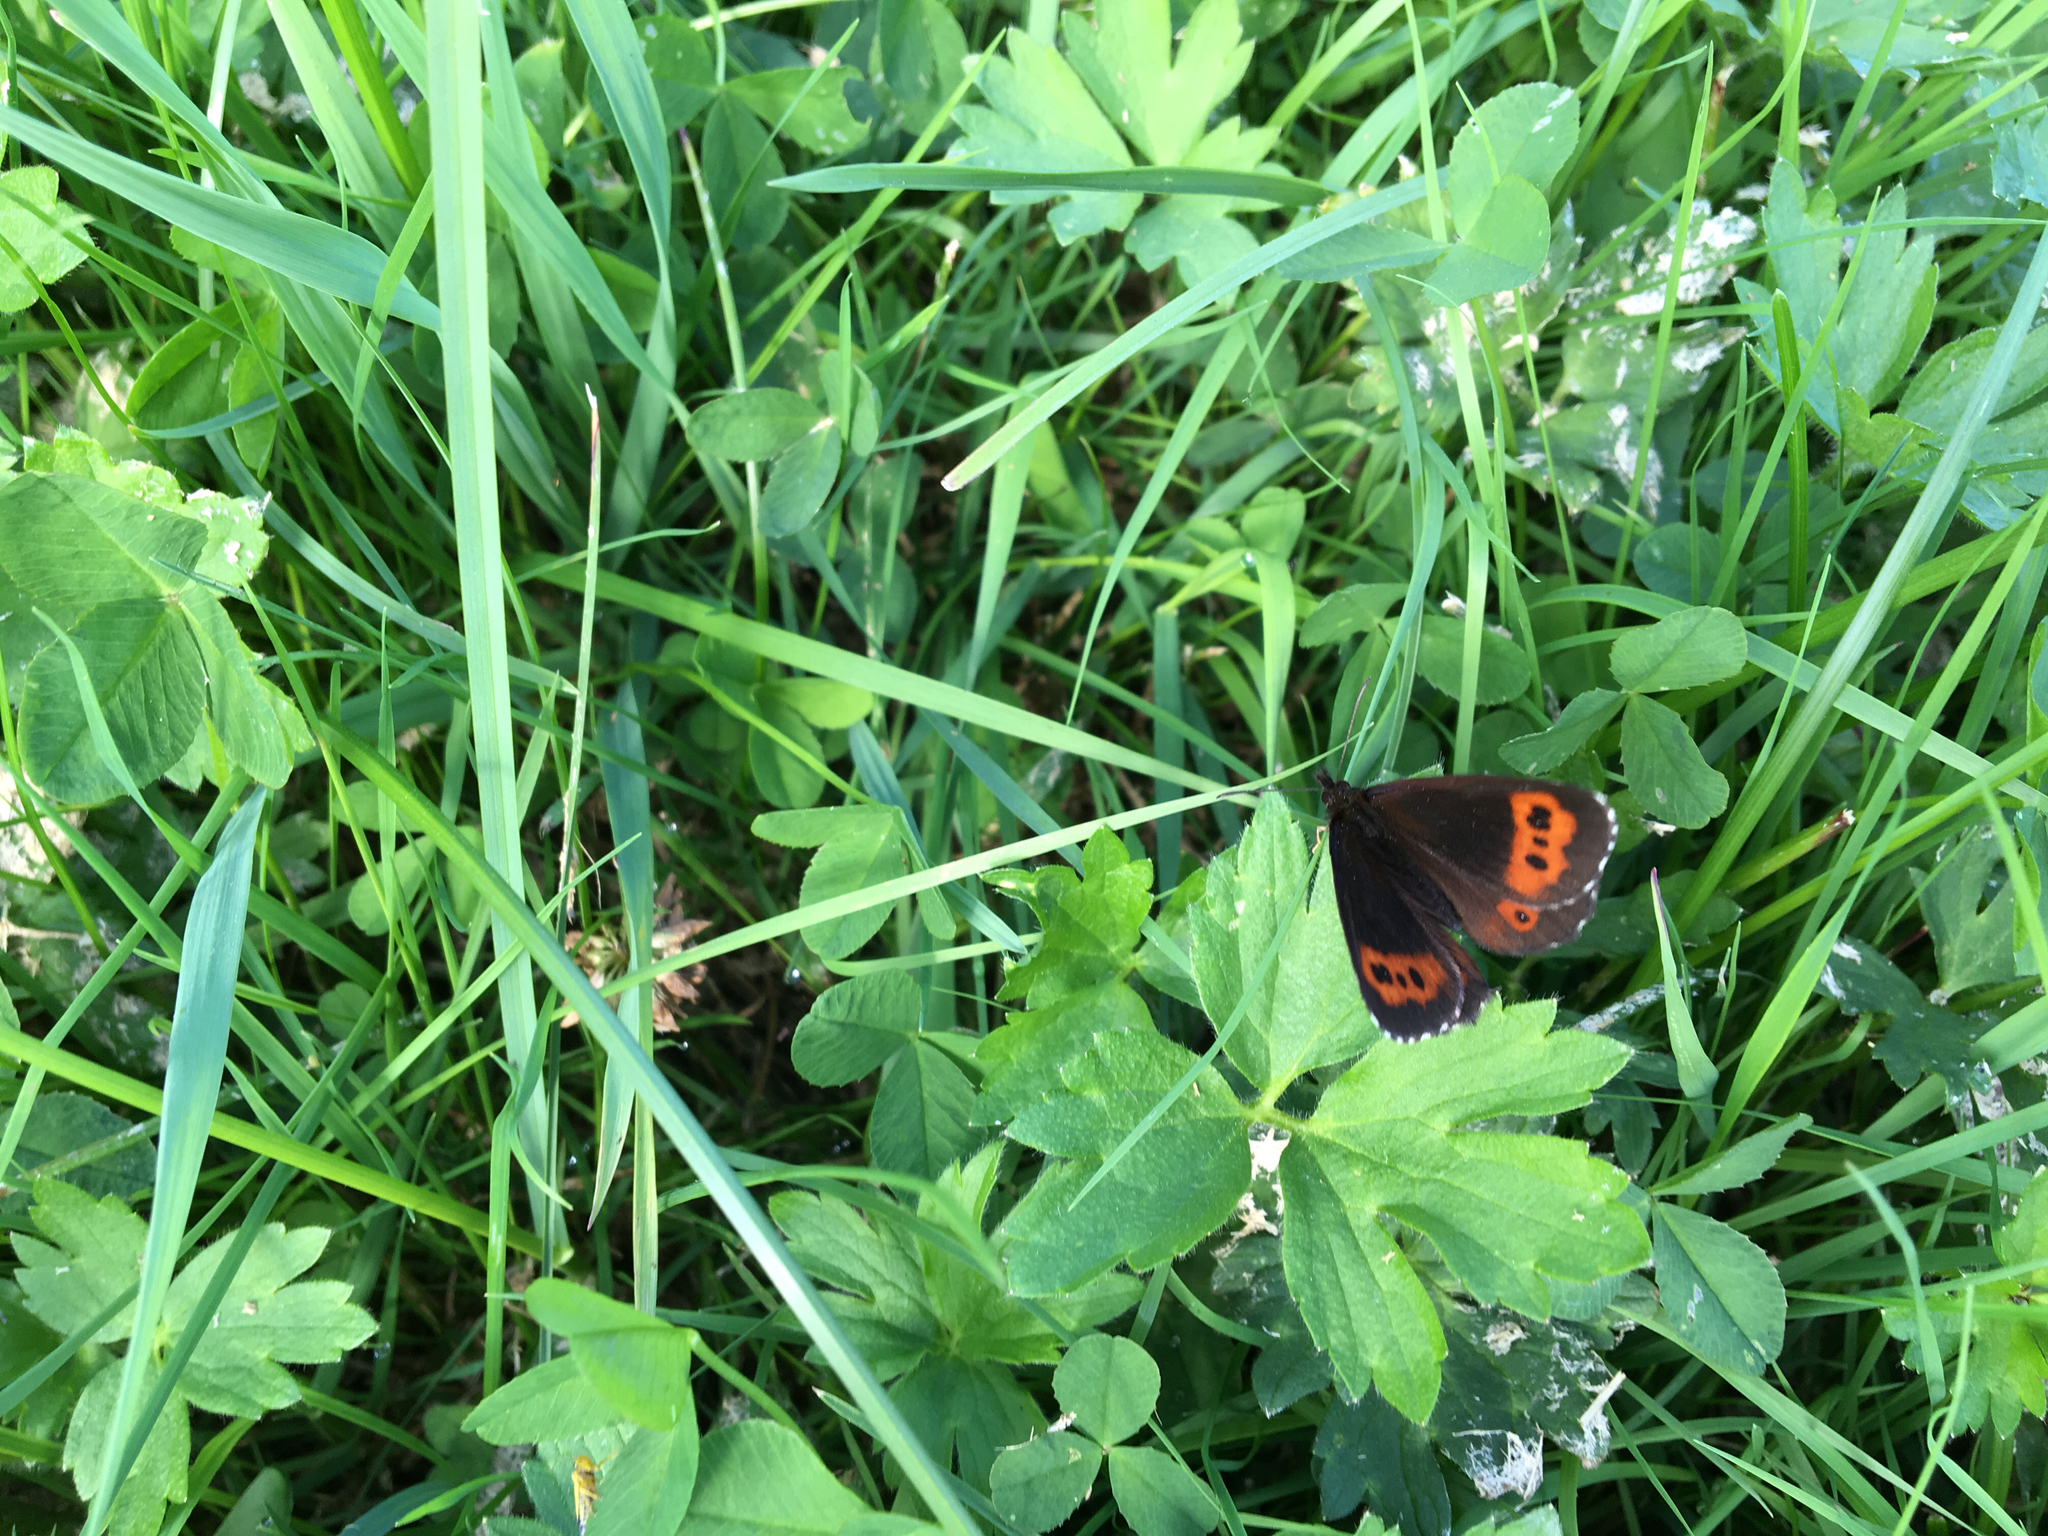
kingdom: Animalia
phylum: Arthropoda
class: Insecta
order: Lepidoptera
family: Nymphalidae
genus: Erebia
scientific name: Erebia ligea
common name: Arran brown
